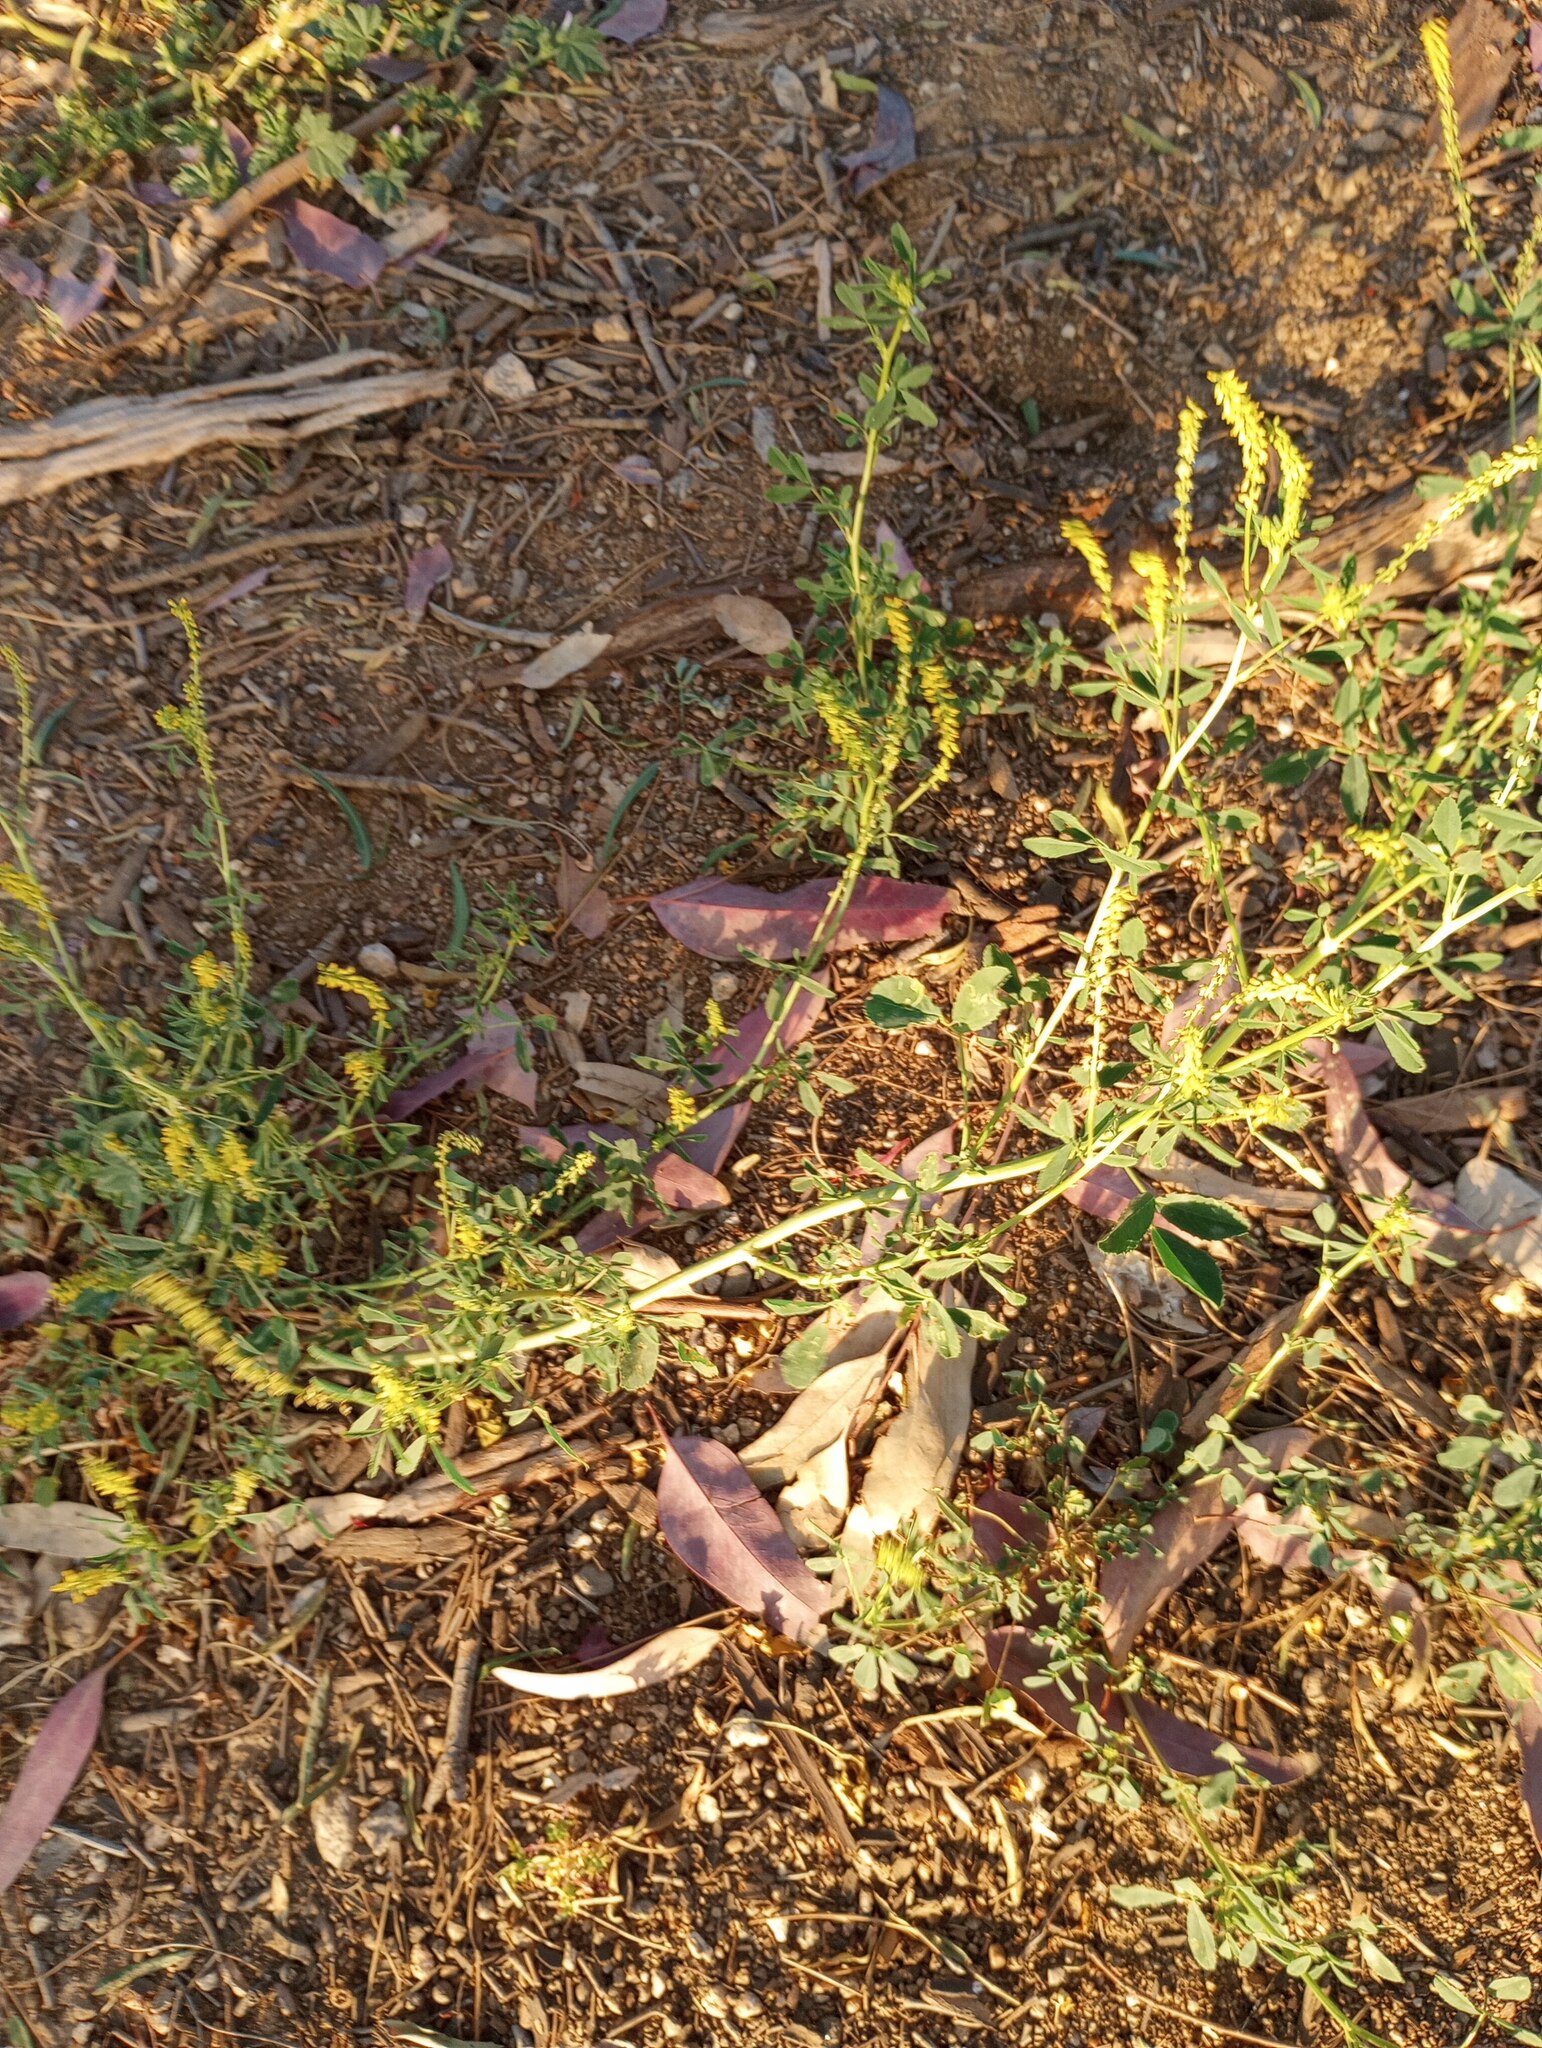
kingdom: Plantae
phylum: Tracheophyta
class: Magnoliopsida
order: Fabales
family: Fabaceae
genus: Melilotus
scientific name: Melilotus indicus
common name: Small melilot
